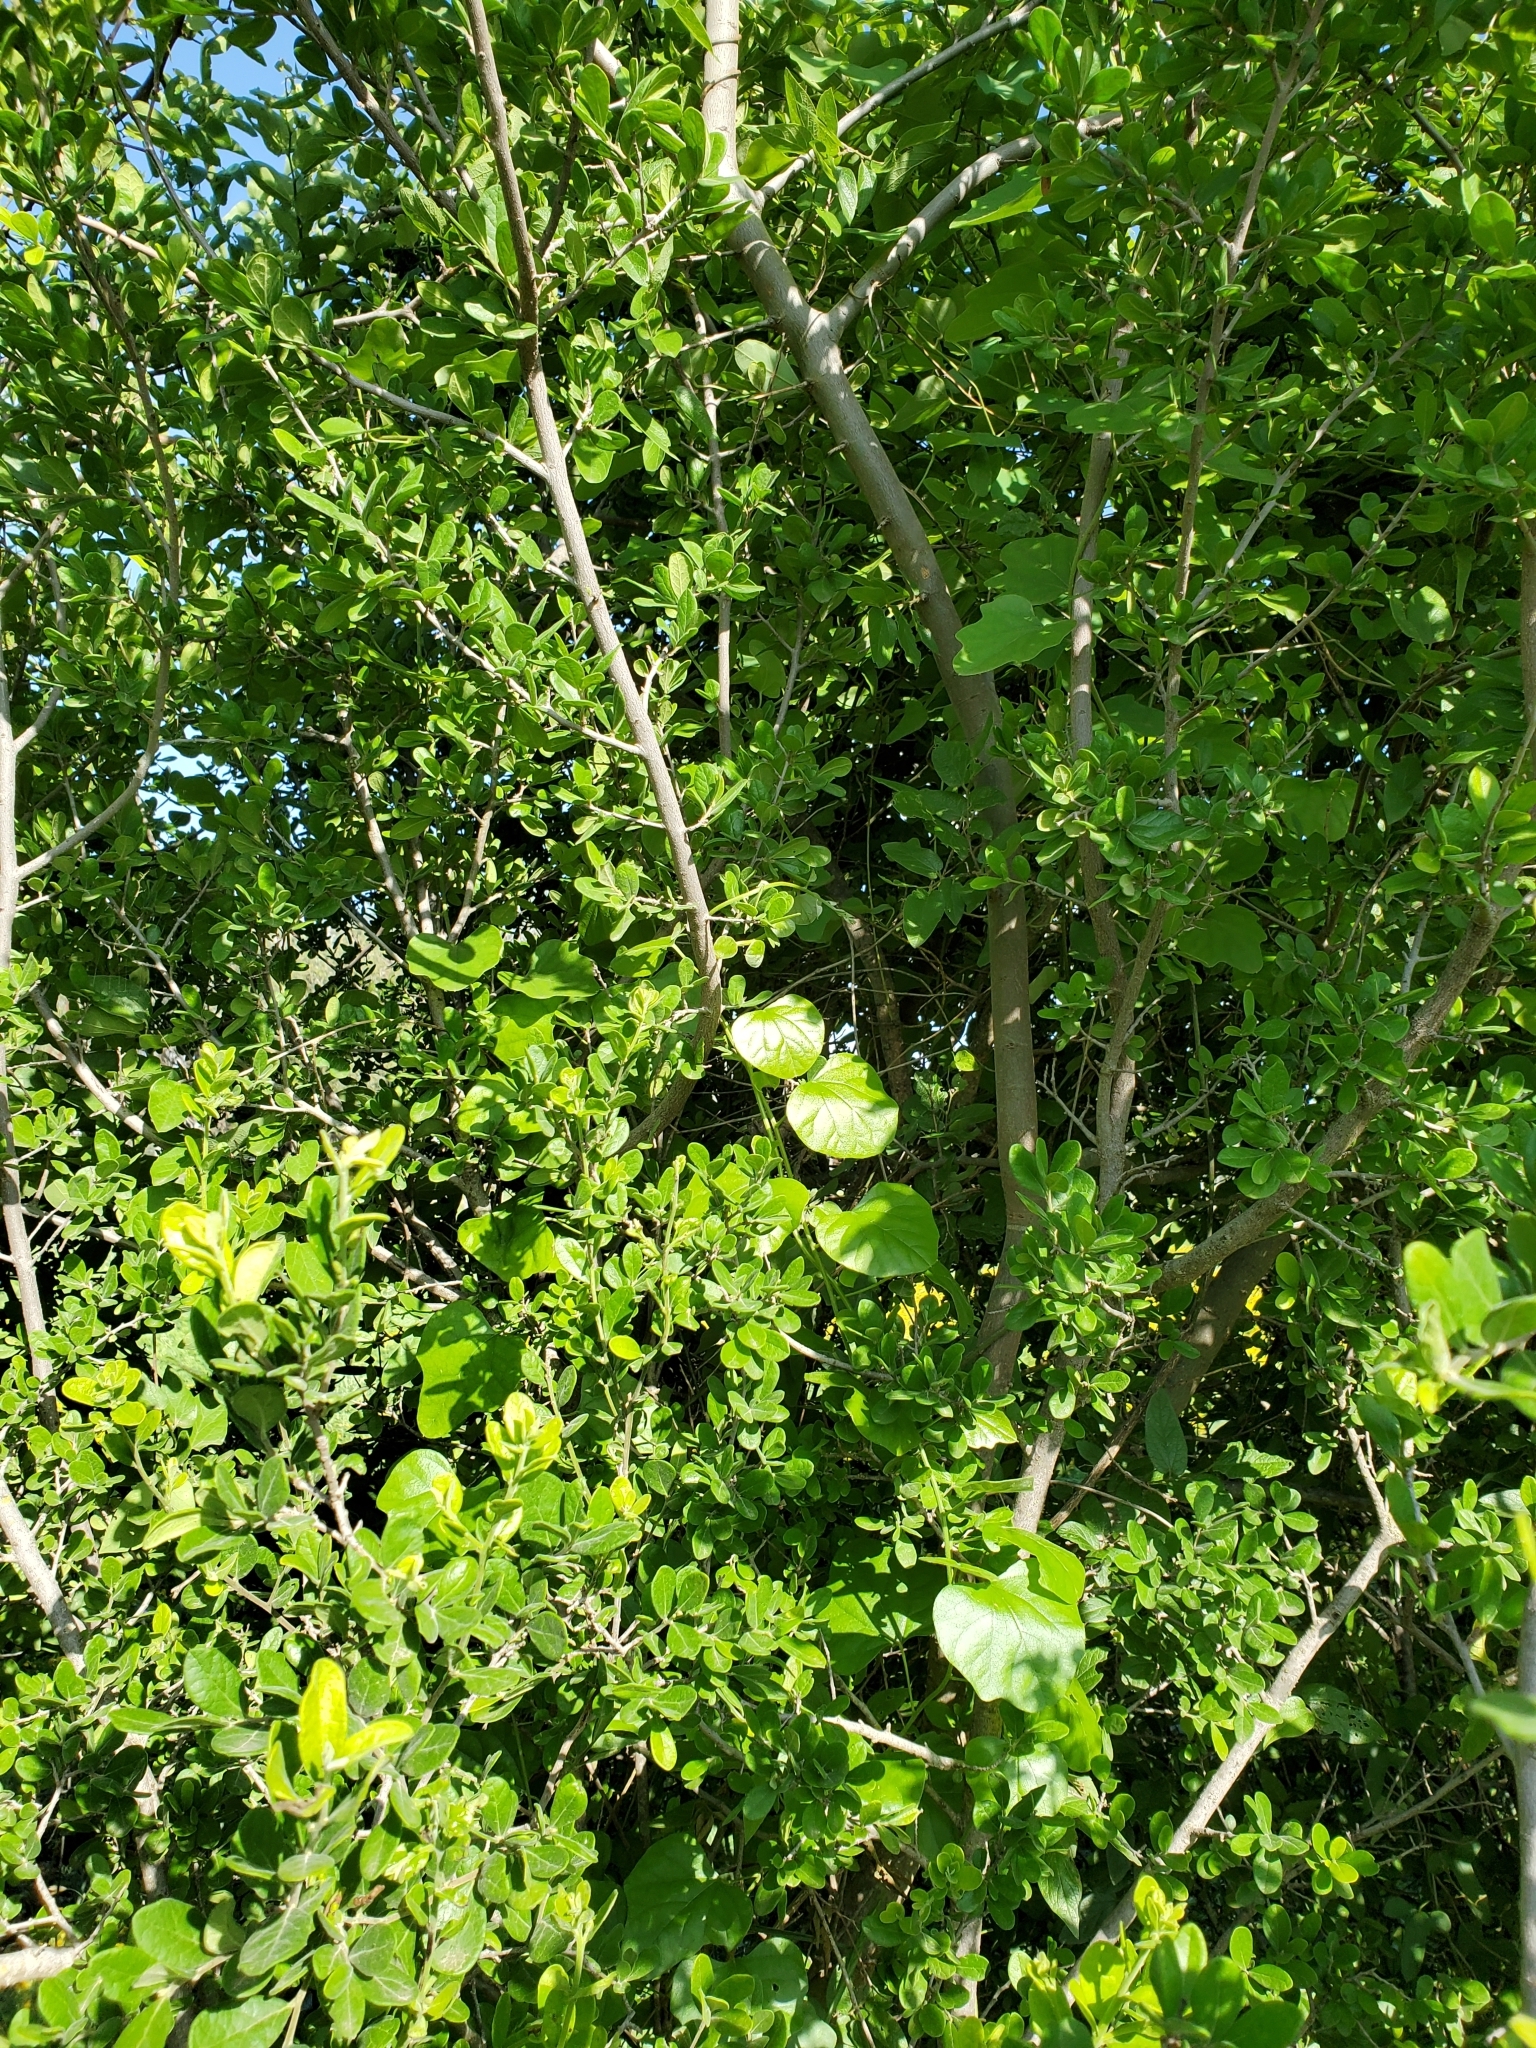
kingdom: Plantae
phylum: Tracheophyta
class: Magnoliopsida
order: Ranunculales
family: Menispermaceae
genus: Cocculus
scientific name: Cocculus carolinus
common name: Carolina moonseed
